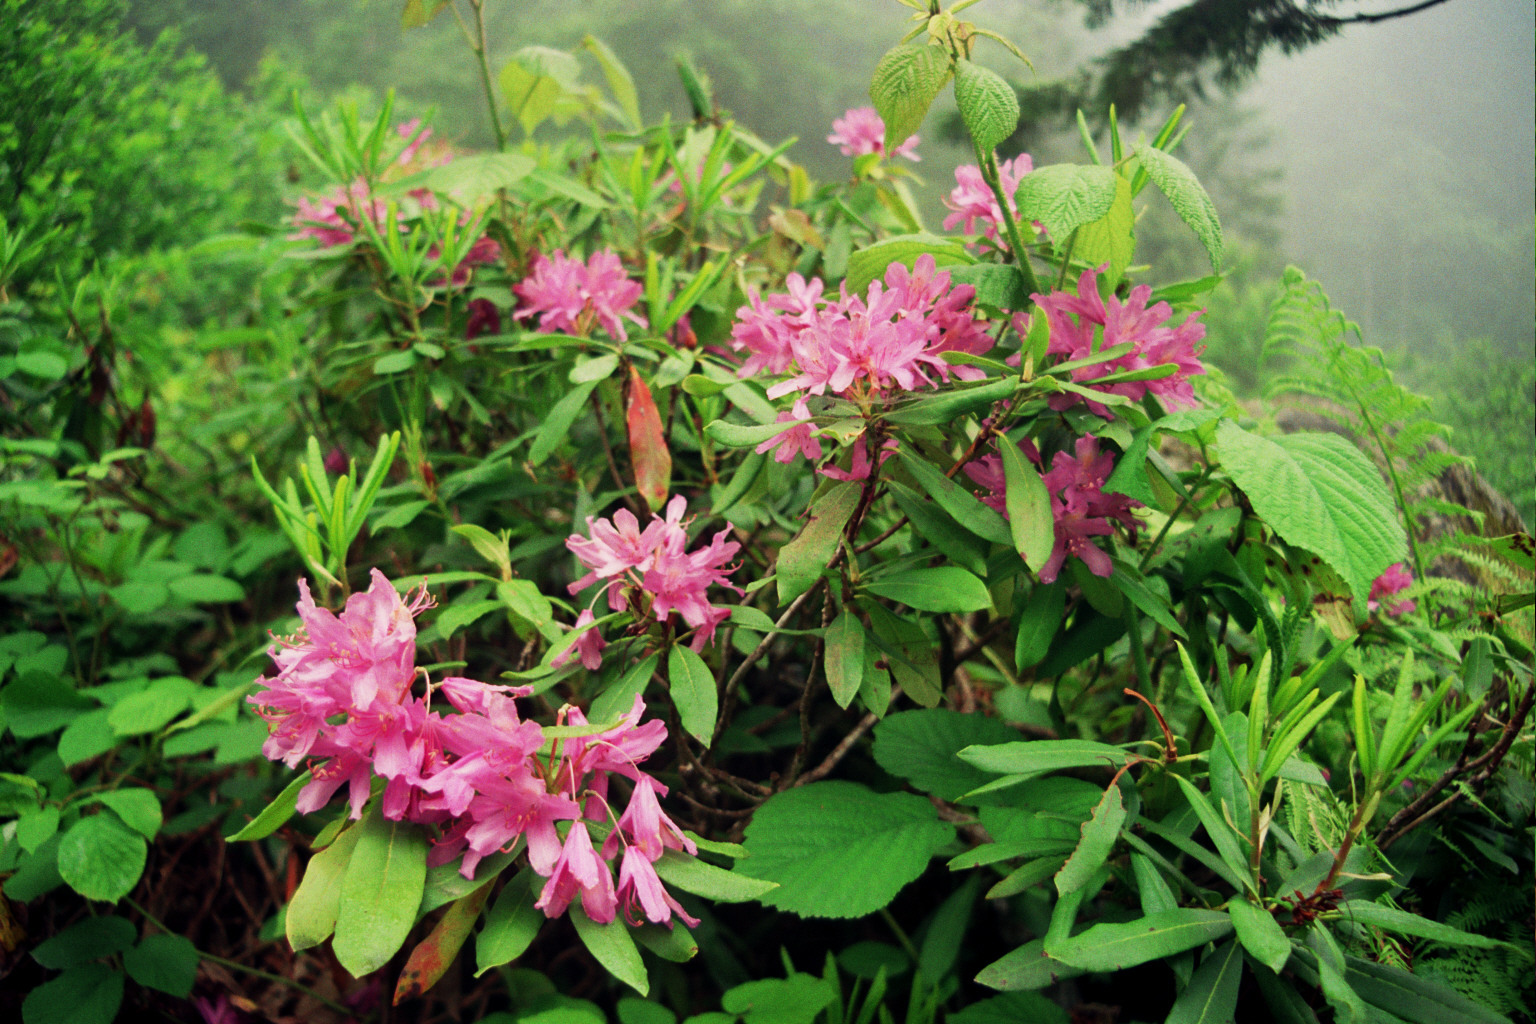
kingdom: Plantae
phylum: Tracheophyta
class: Magnoliopsida
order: Ericales
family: Ericaceae
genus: Rhododendron
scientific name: Rhododendron ponticum
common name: Rhododendron
